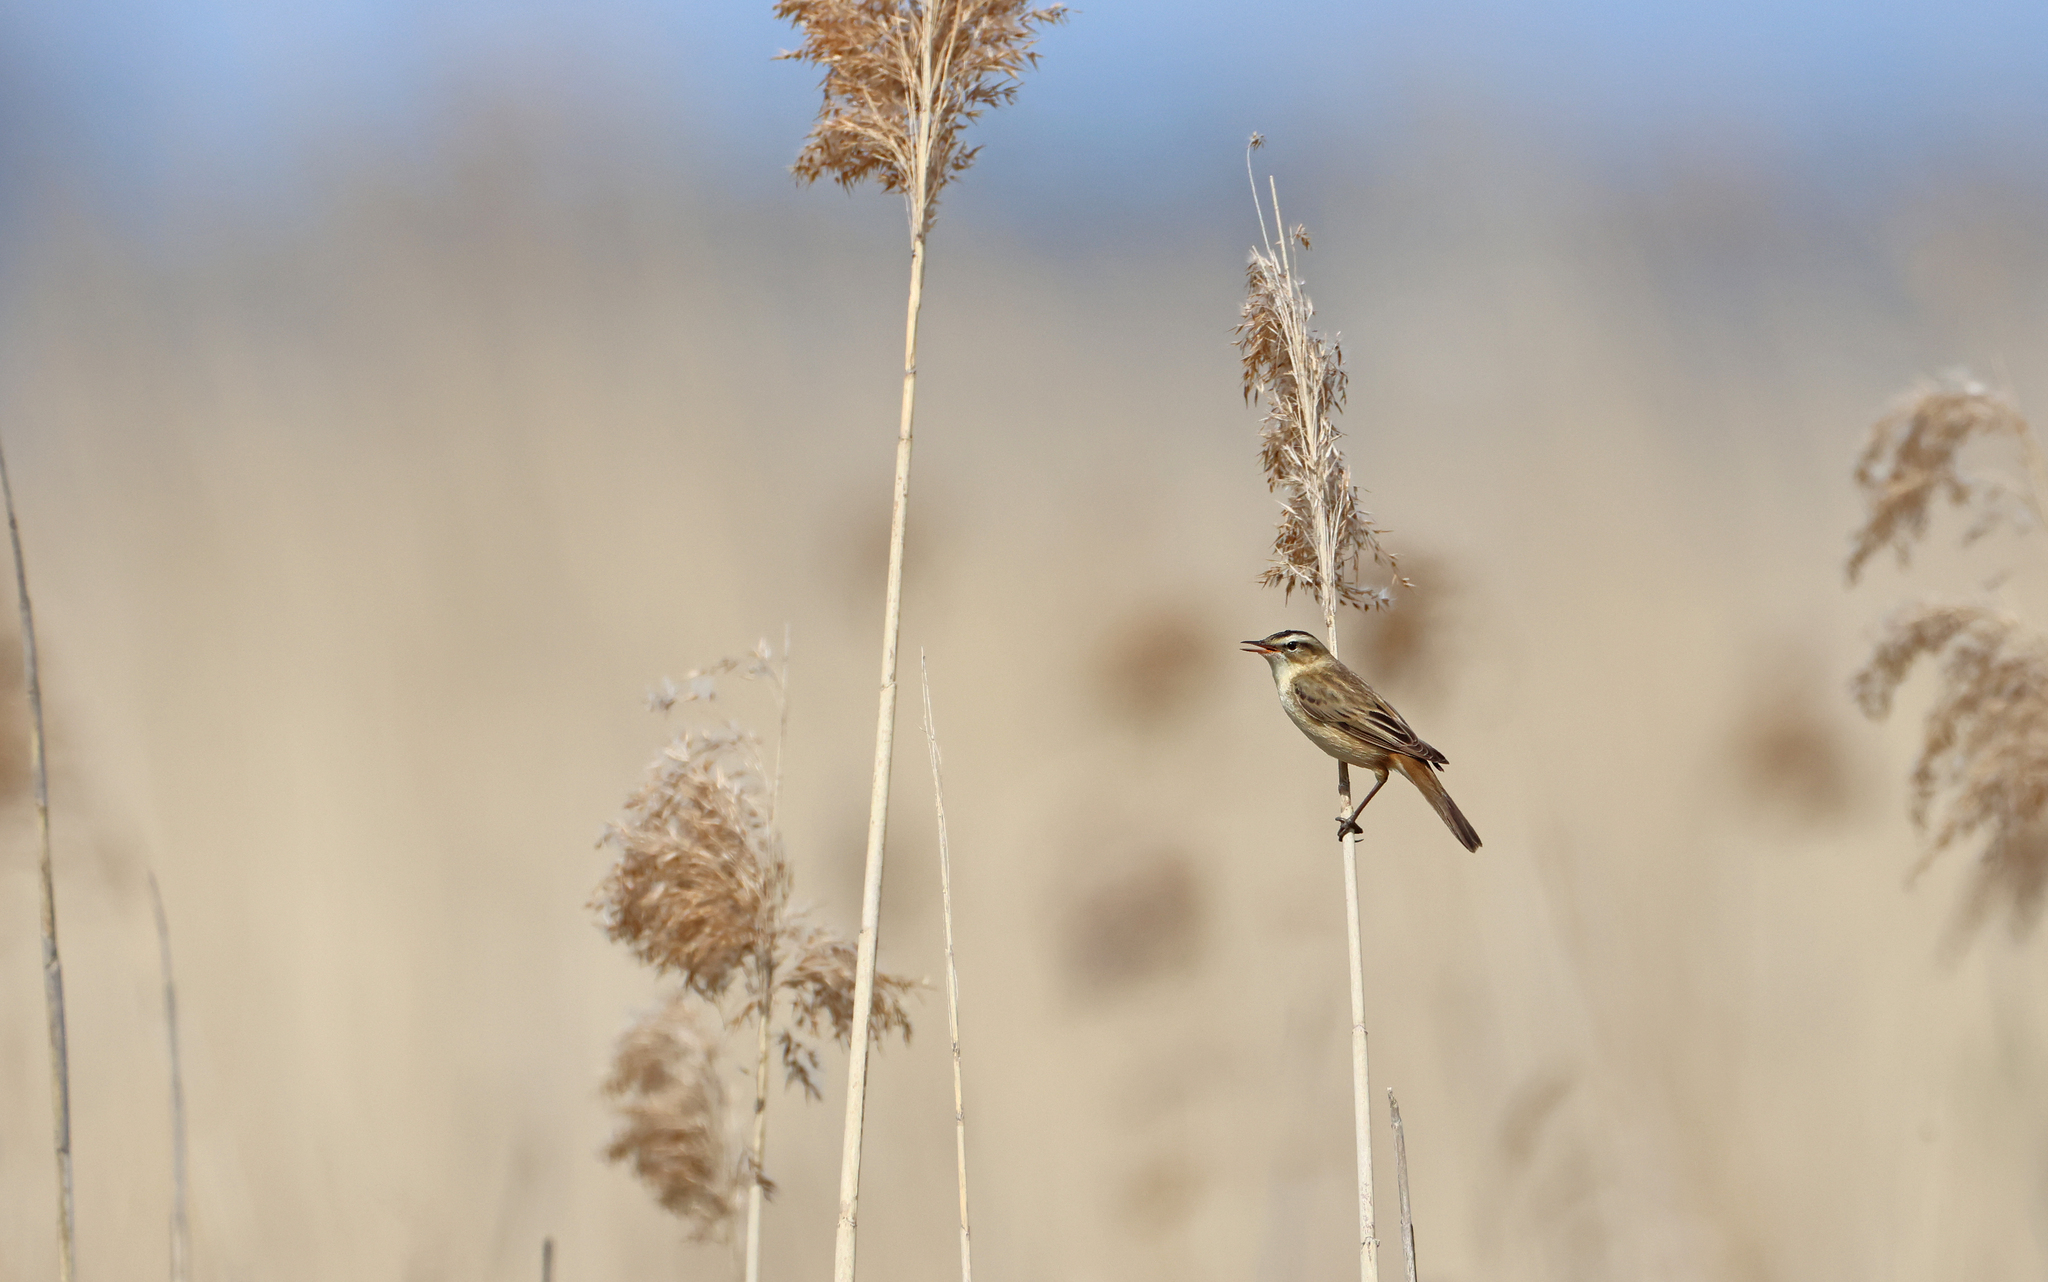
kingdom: Animalia
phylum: Chordata
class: Aves
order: Passeriformes
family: Acrocephalidae
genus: Acrocephalus
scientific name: Acrocephalus schoenobaenus
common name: Sedge warbler
